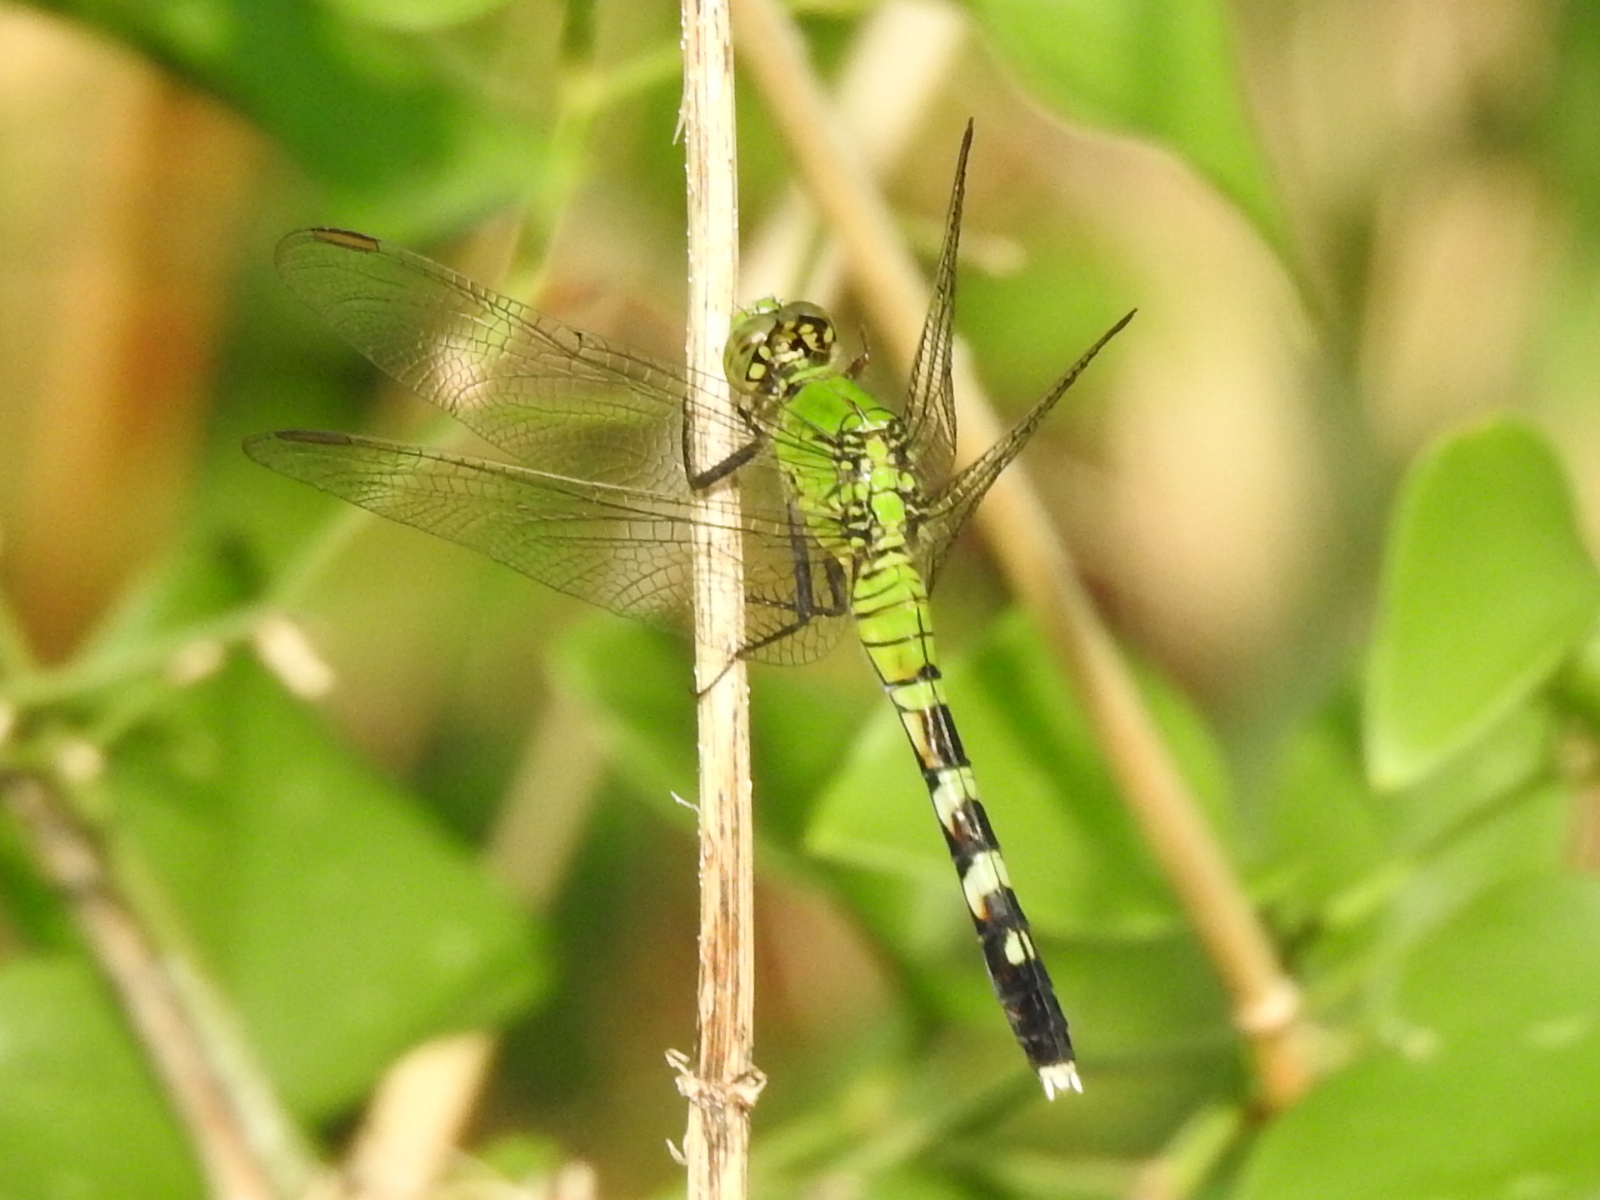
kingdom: Animalia
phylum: Arthropoda
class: Insecta
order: Odonata
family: Libellulidae
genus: Erythemis
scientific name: Erythemis simplicicollis
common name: Eastern pondhawk
